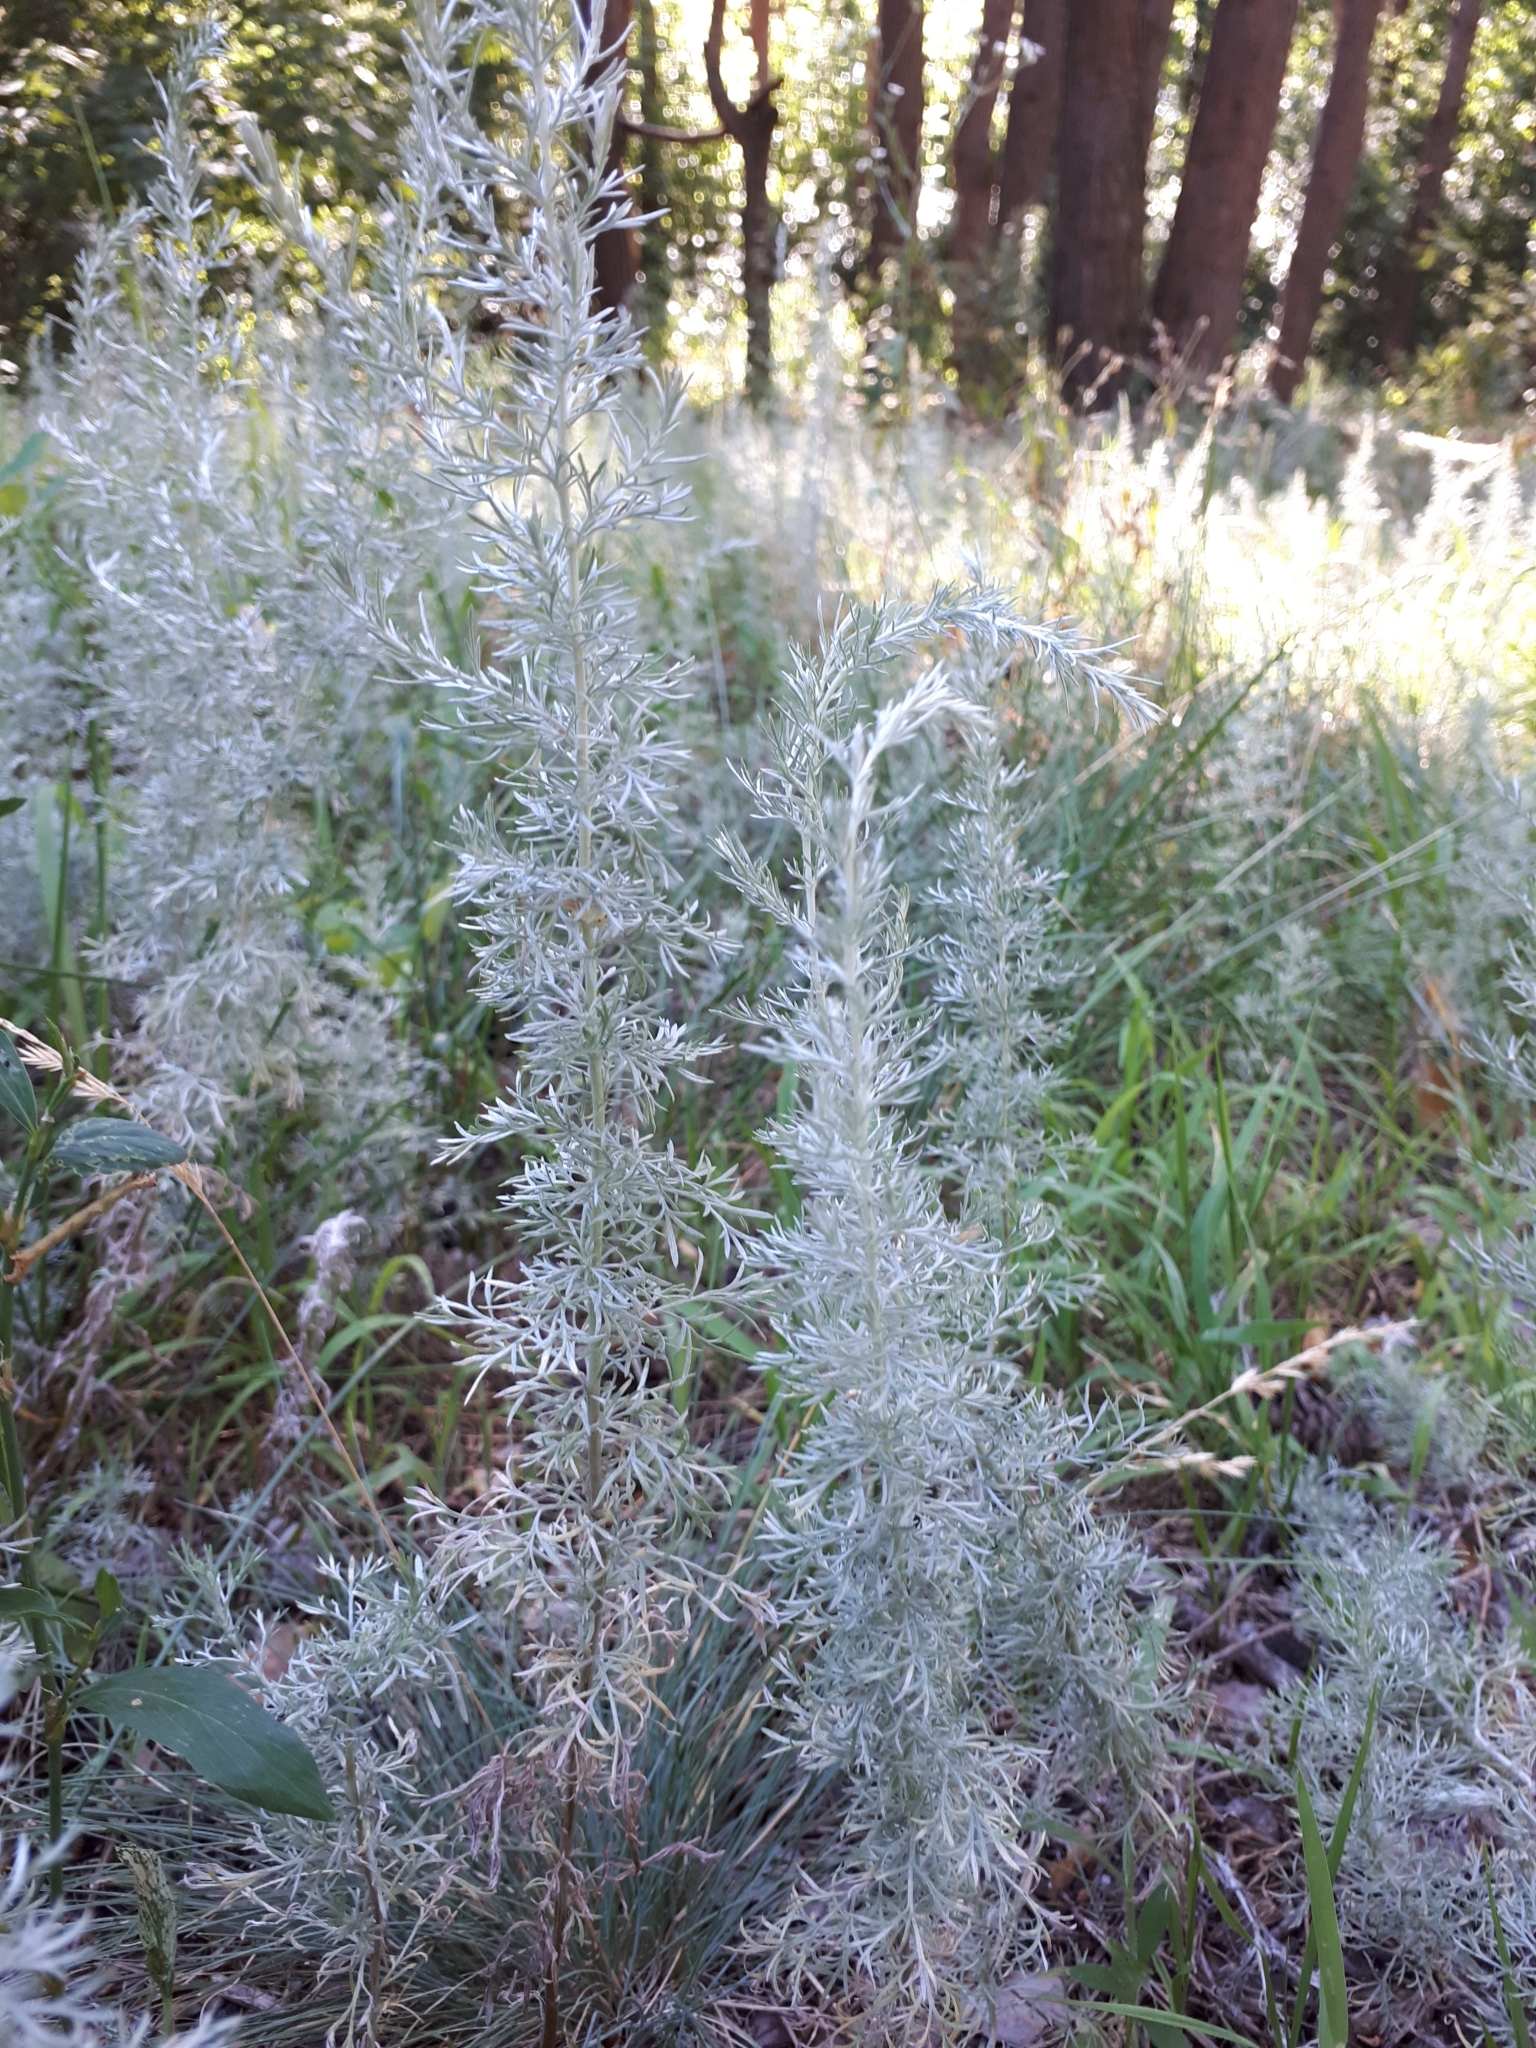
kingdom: Plantae
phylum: Tracheophyta
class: Magnoliopsida
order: Asterales
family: Asteraceae
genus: Artemisia
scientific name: Artemisia austriaca
